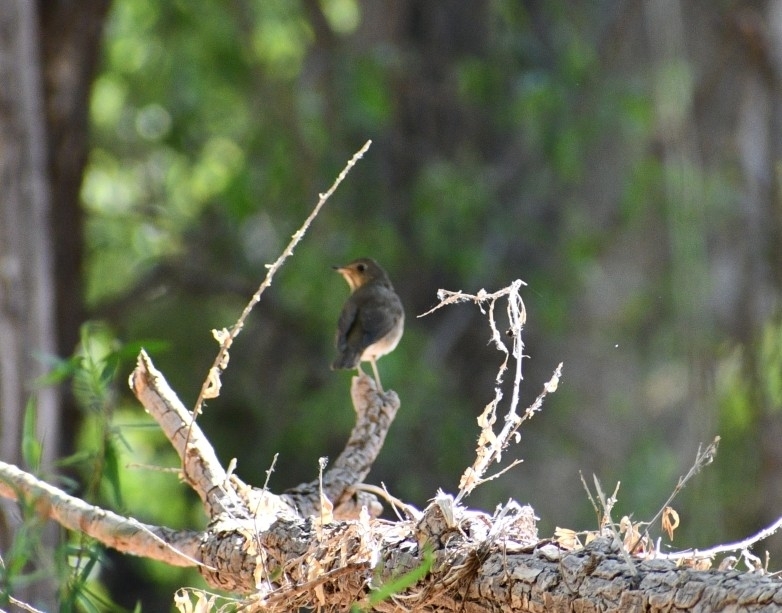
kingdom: Animalia
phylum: Chordata
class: Aves
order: Passeriformes
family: Turdidae
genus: Catharus
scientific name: Catharus ustulatus
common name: Swainson's thrush
